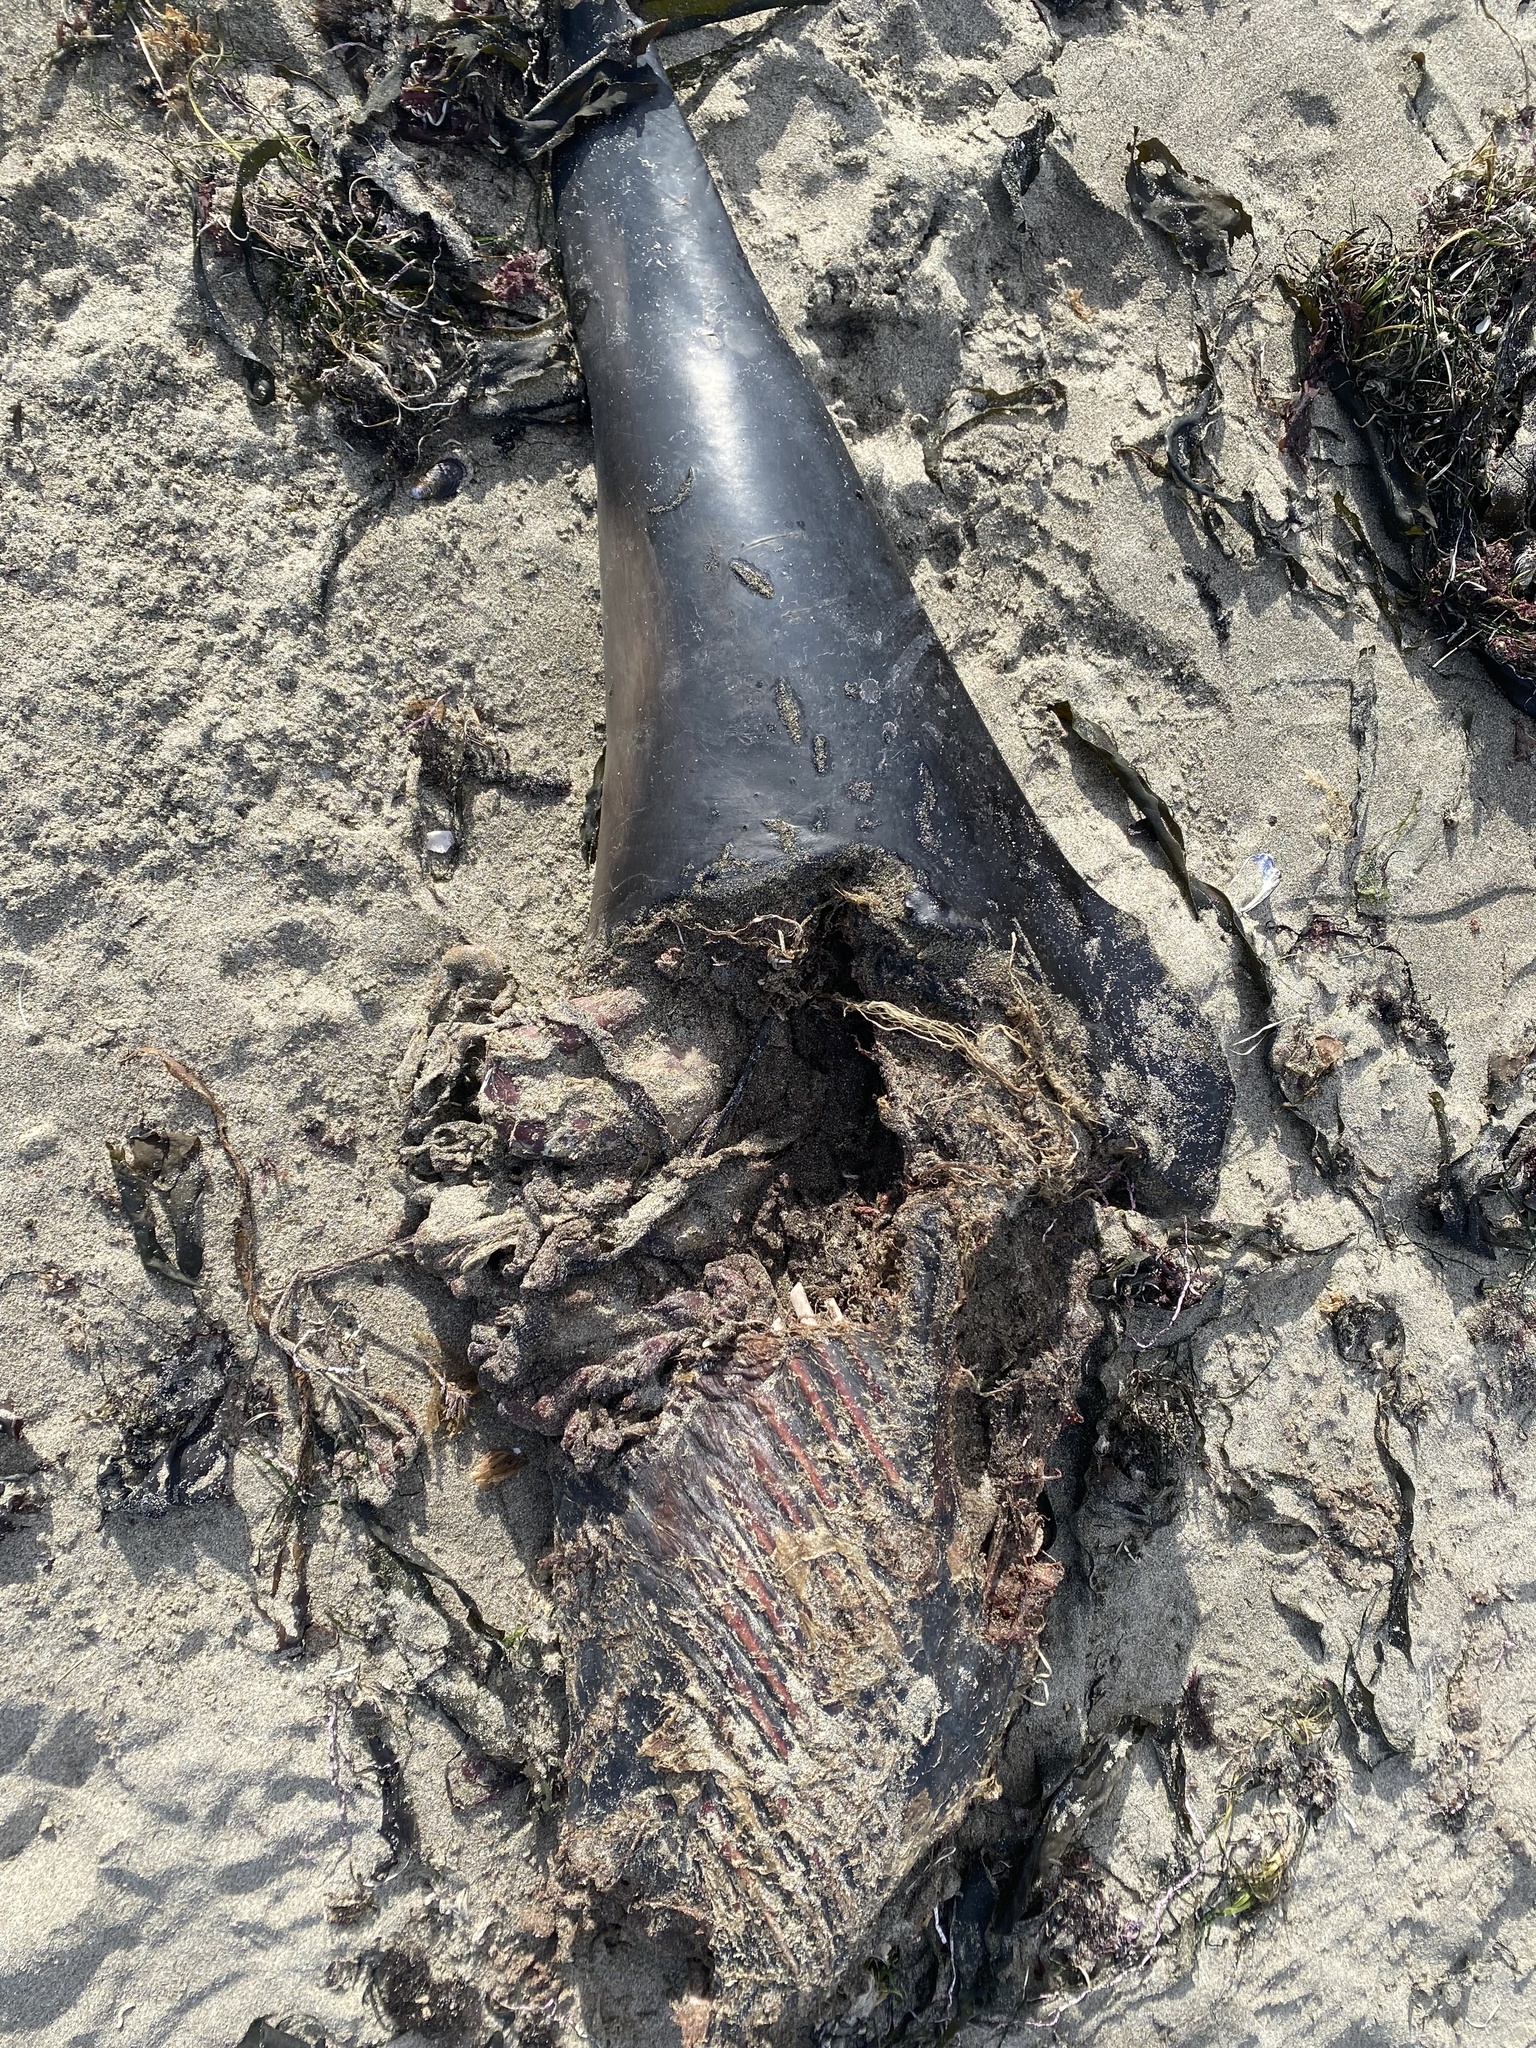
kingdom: Animalia
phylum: Chordata
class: Mammalia
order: Cetacea
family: Phocoenidae
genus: Phocoena
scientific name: Phocoena phocoena
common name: Harbor porpoise
